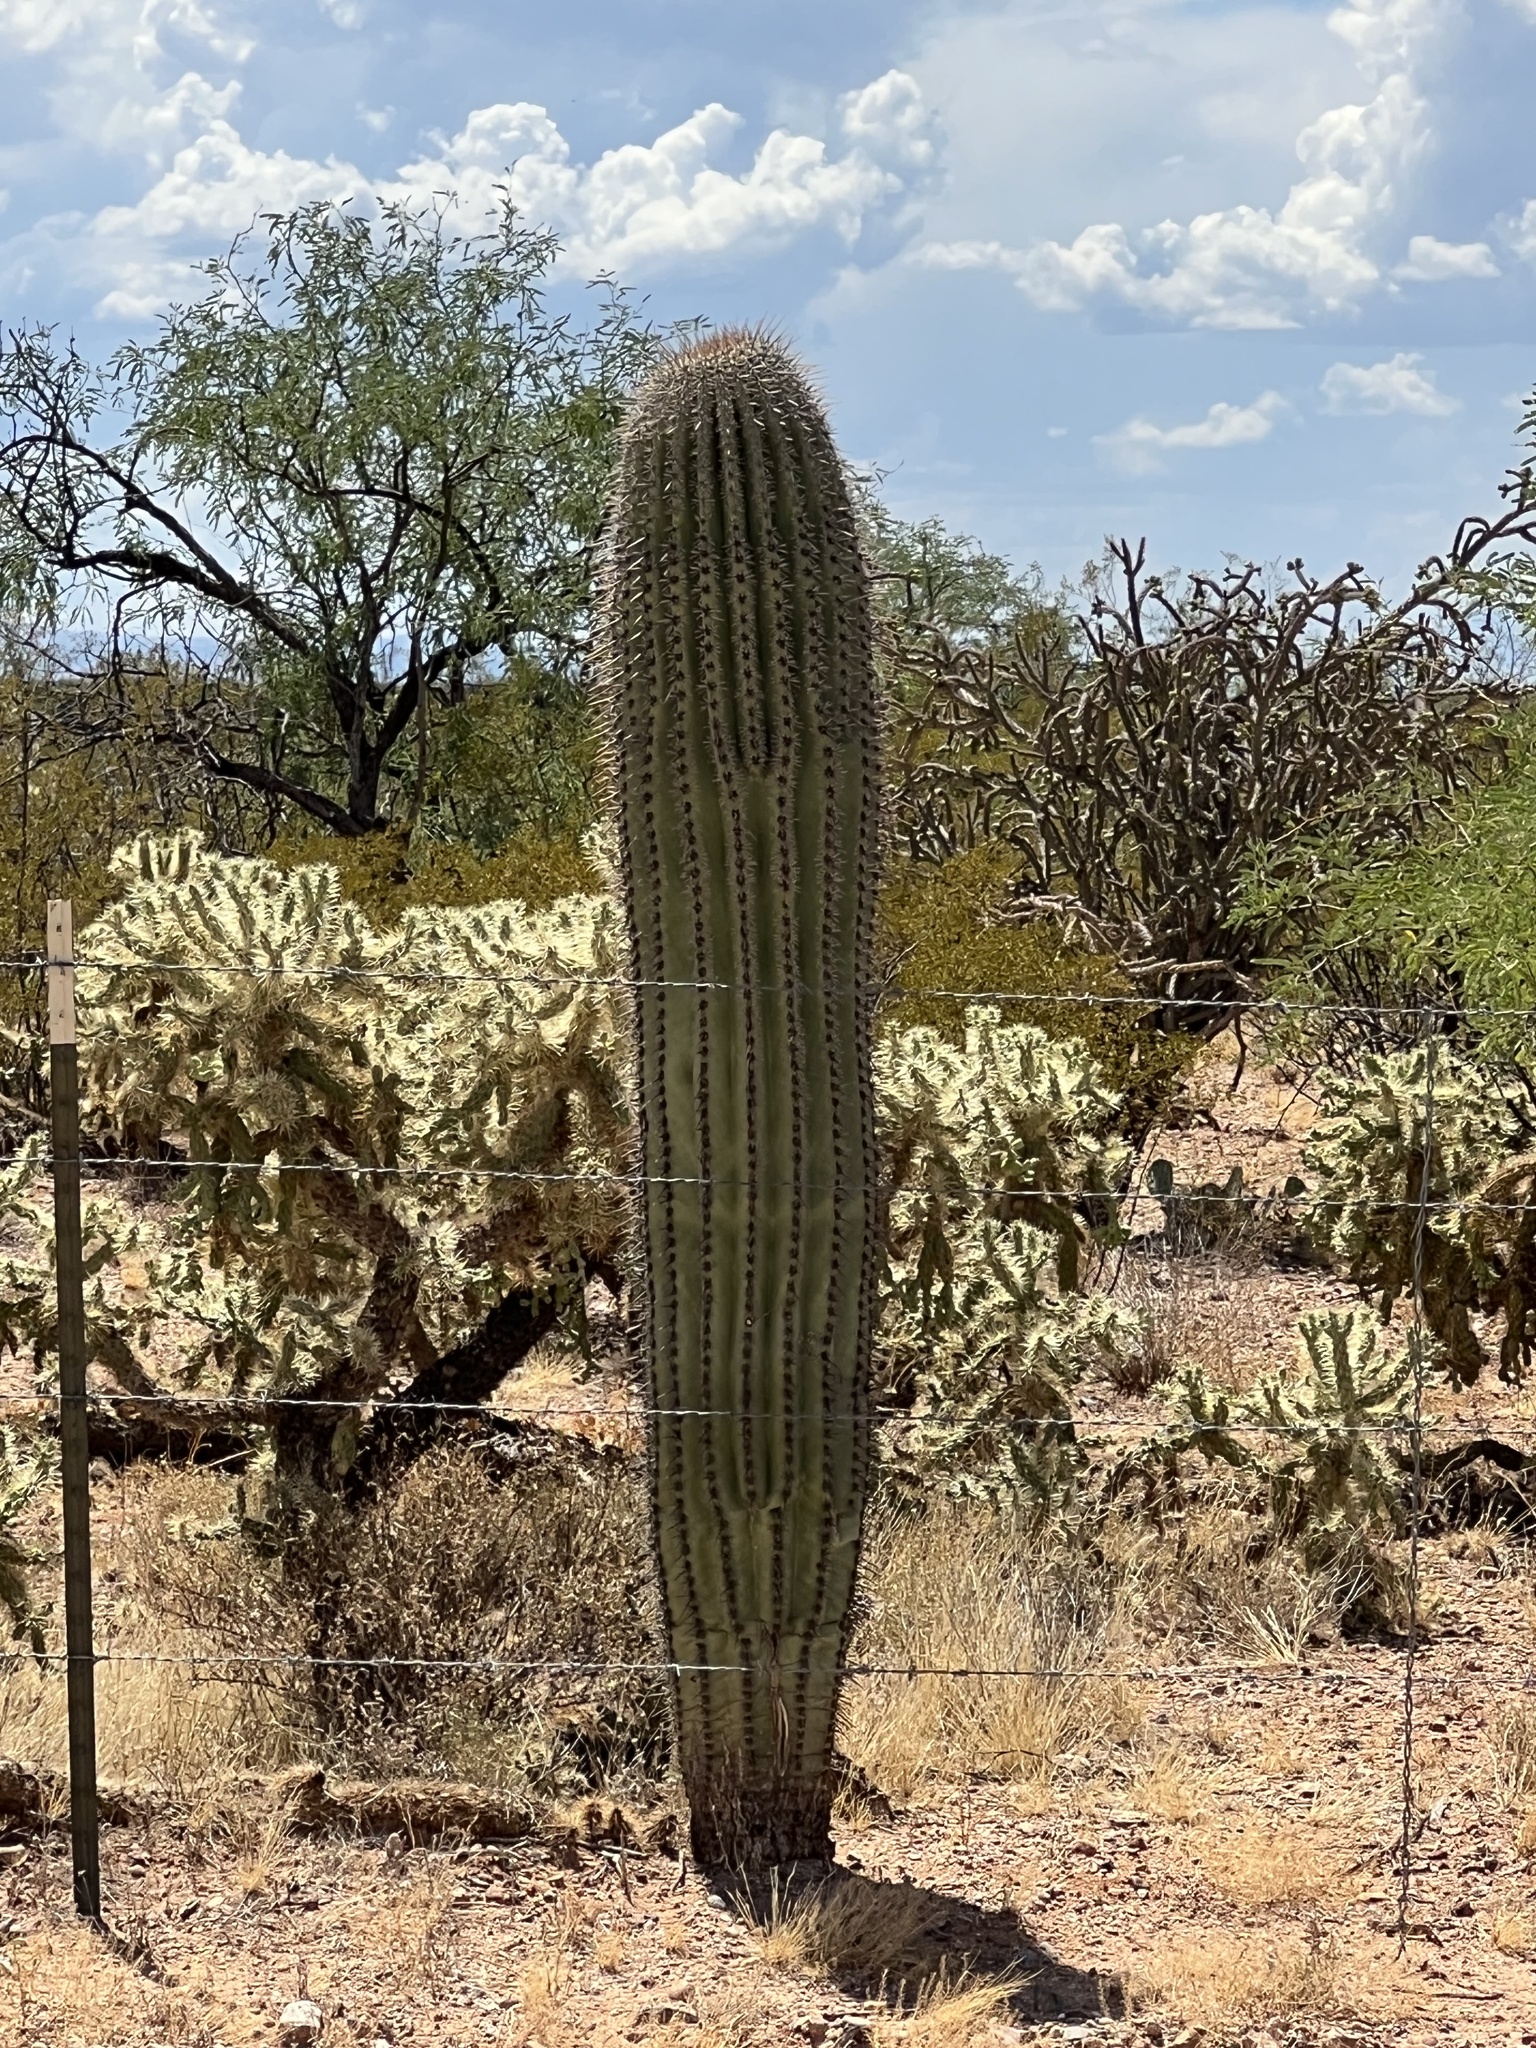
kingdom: Plantae
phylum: Tracheophyta
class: Magnoliopsida
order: Caryophyllales
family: Cactaceae
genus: Carnegiea
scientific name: Carnegiea gigantea
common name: Saguaro
